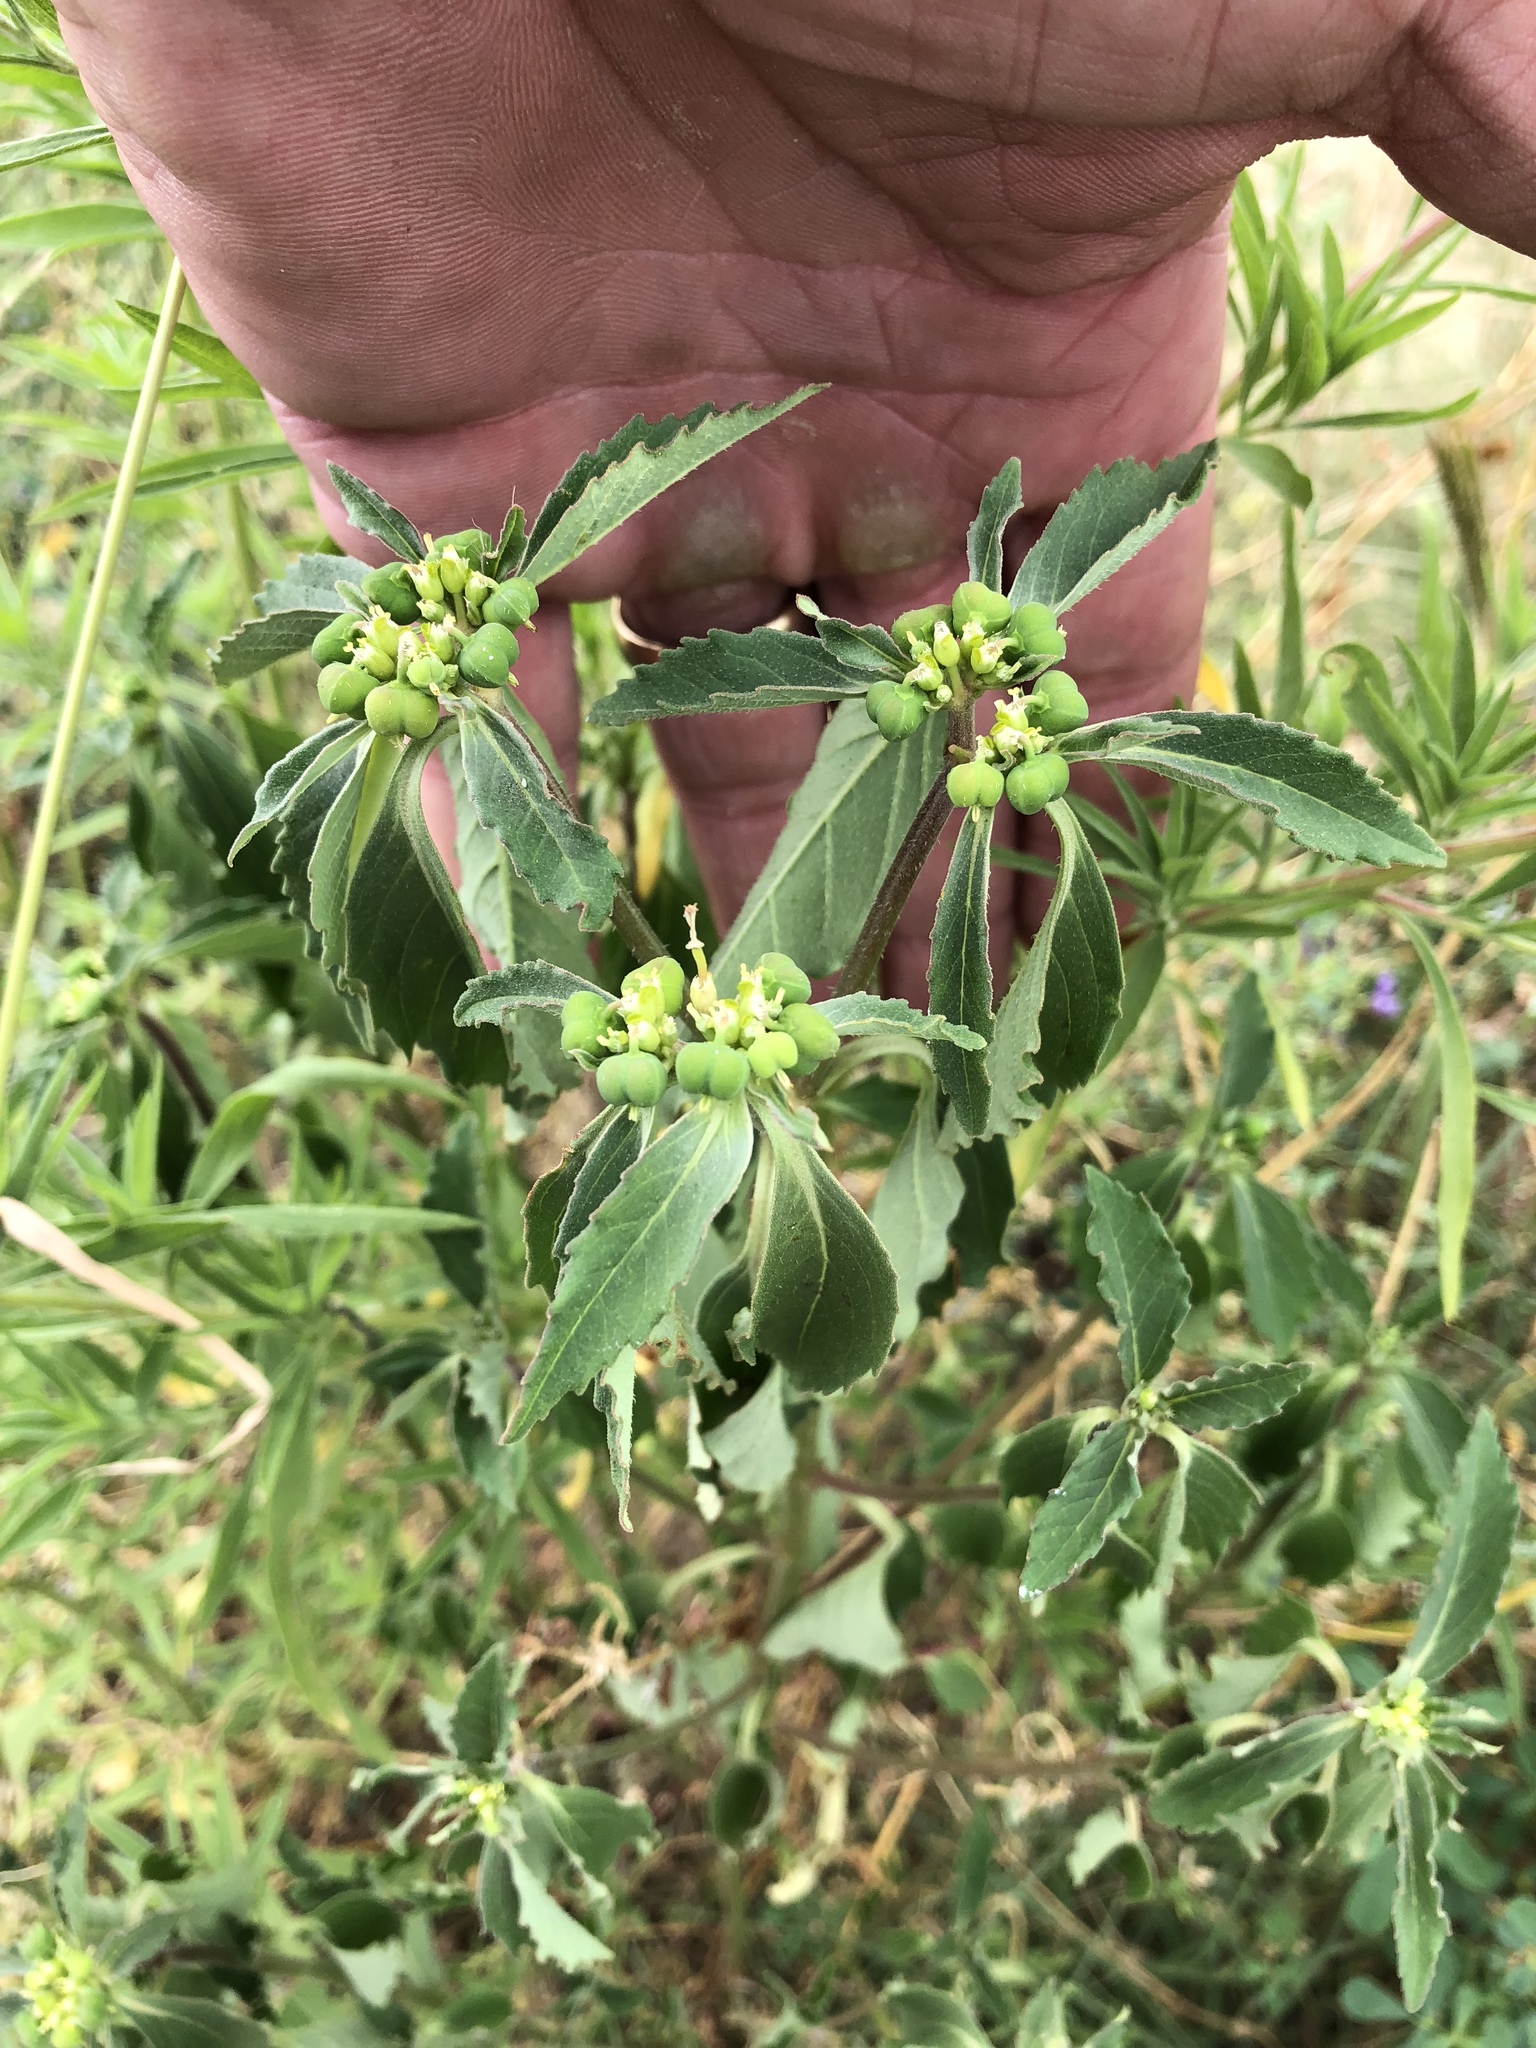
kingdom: Plantae
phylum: Tracheophyta
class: Magnoliopsida
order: Malpighiales
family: Euphorbiaceae
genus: Euphorbia
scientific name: Euphorbia davidii
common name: David's spurge
